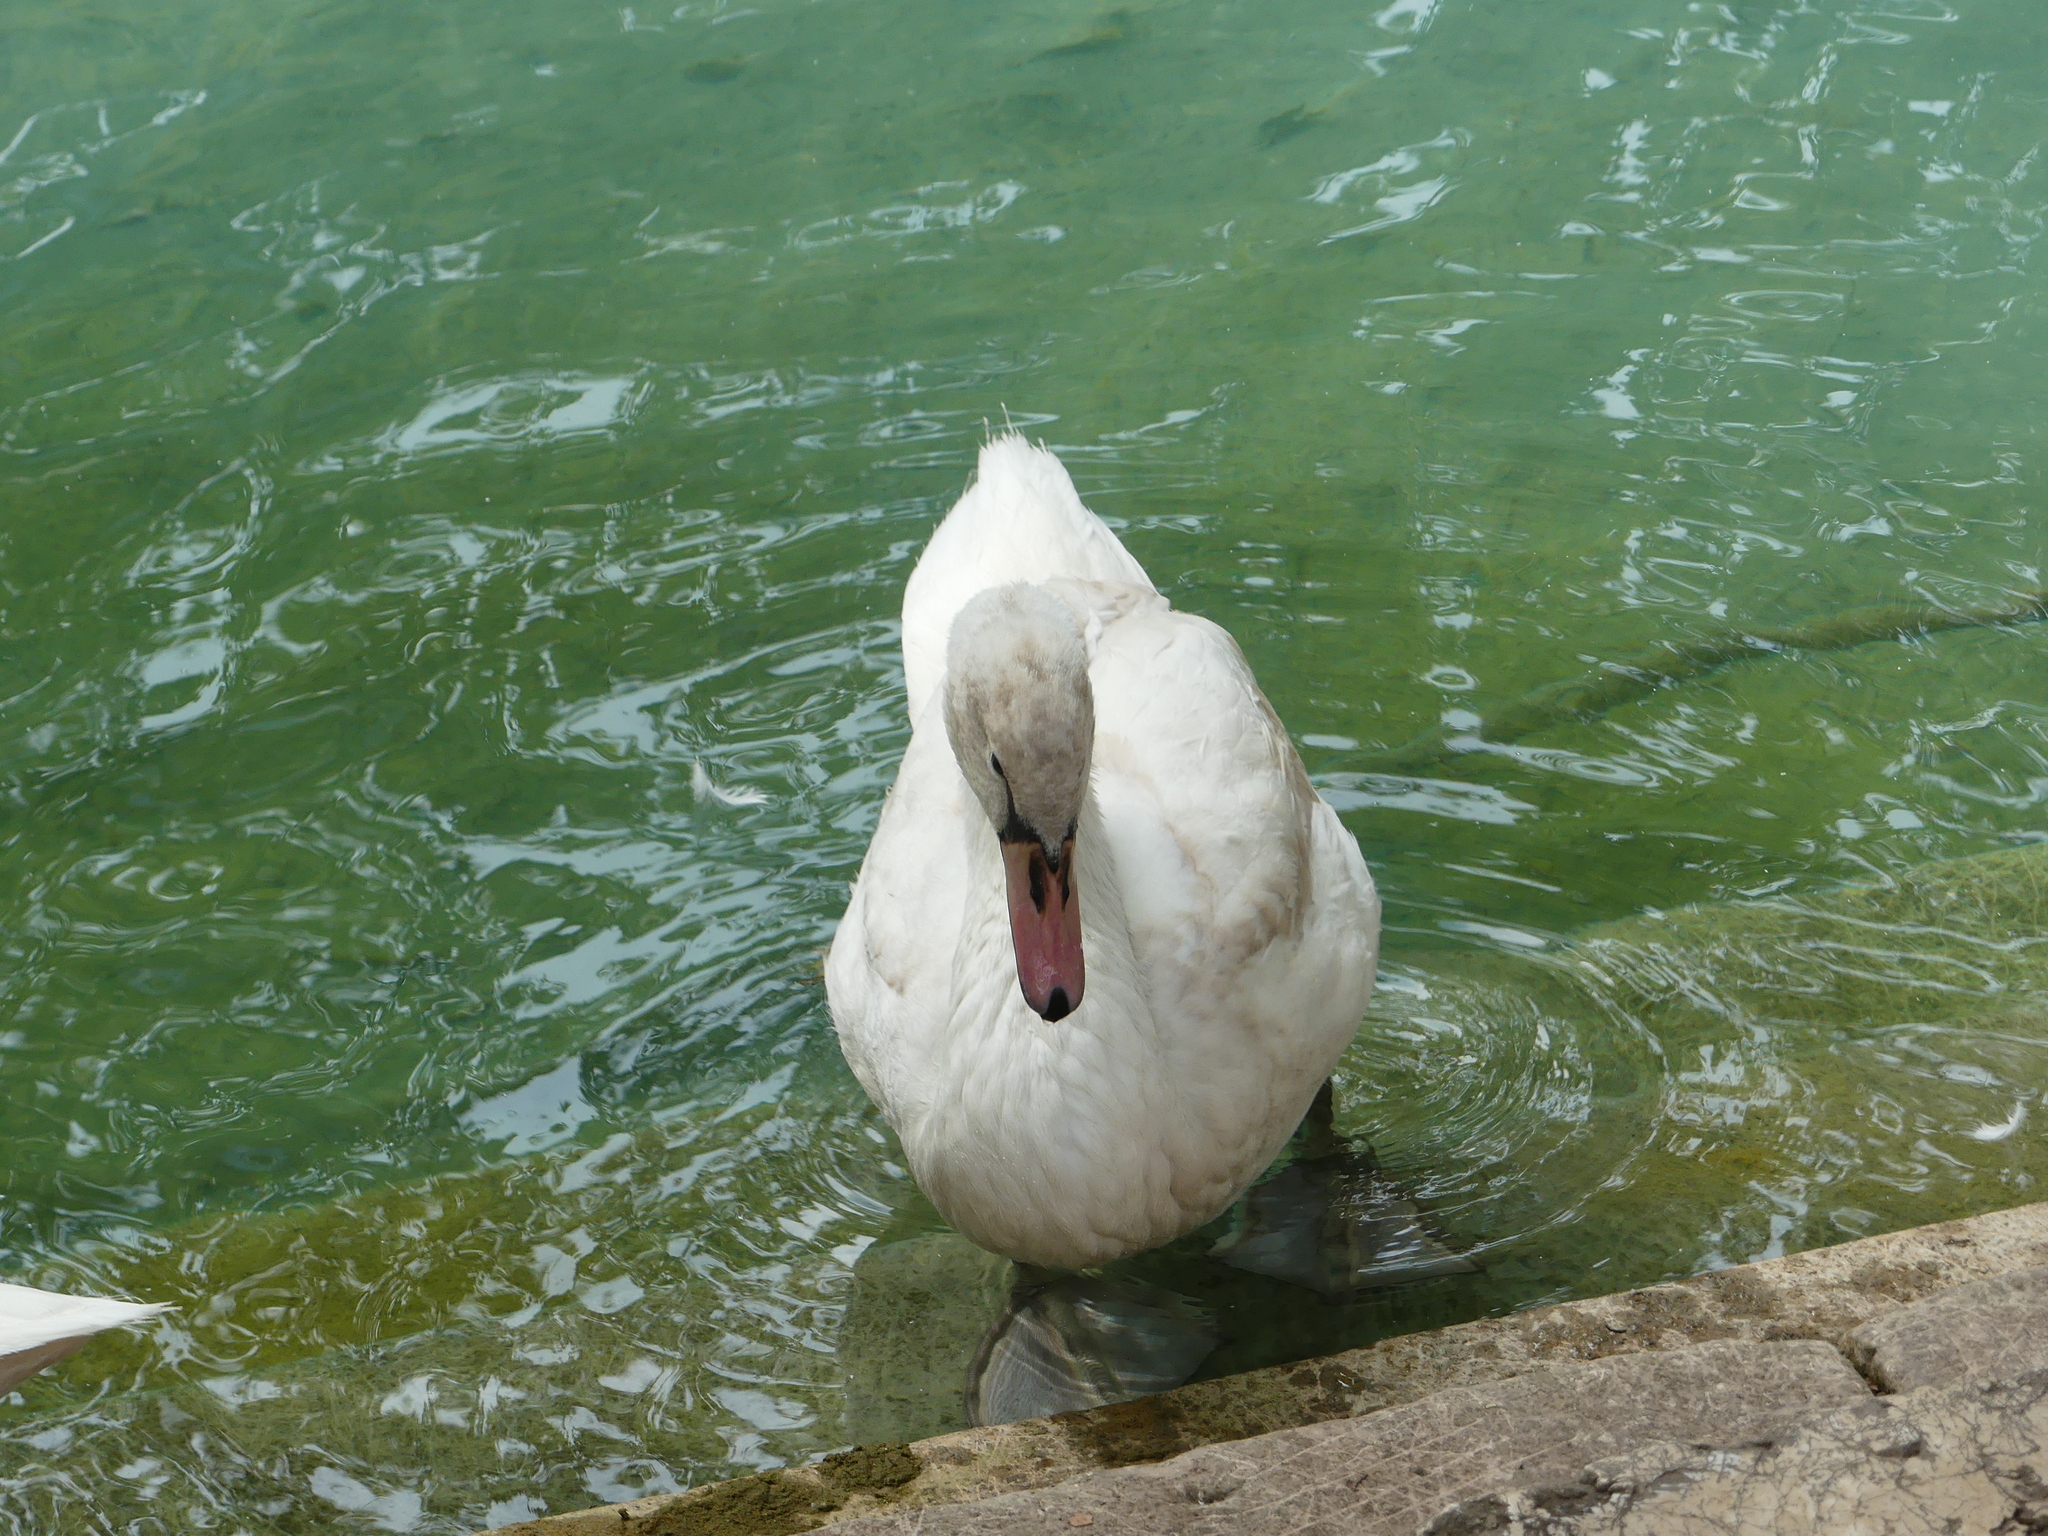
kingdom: Animalia
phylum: Chordata
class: Aves
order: Anseriformes
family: Anatidae
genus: Cygnus
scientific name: Cygnus olor
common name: Mute swan
